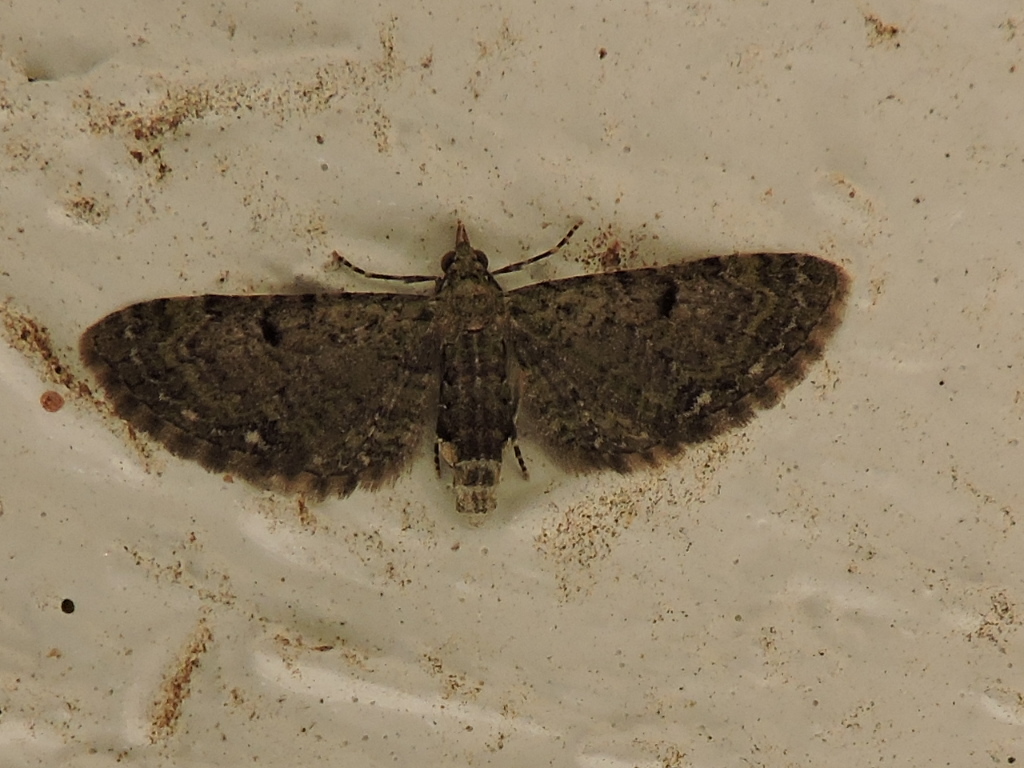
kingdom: Animalia
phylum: Arthropoda
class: Insecta
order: Lepidoptera
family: Geometridae
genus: Eupithecia
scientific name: Eupithecia miserulata
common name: Common eupithecia
